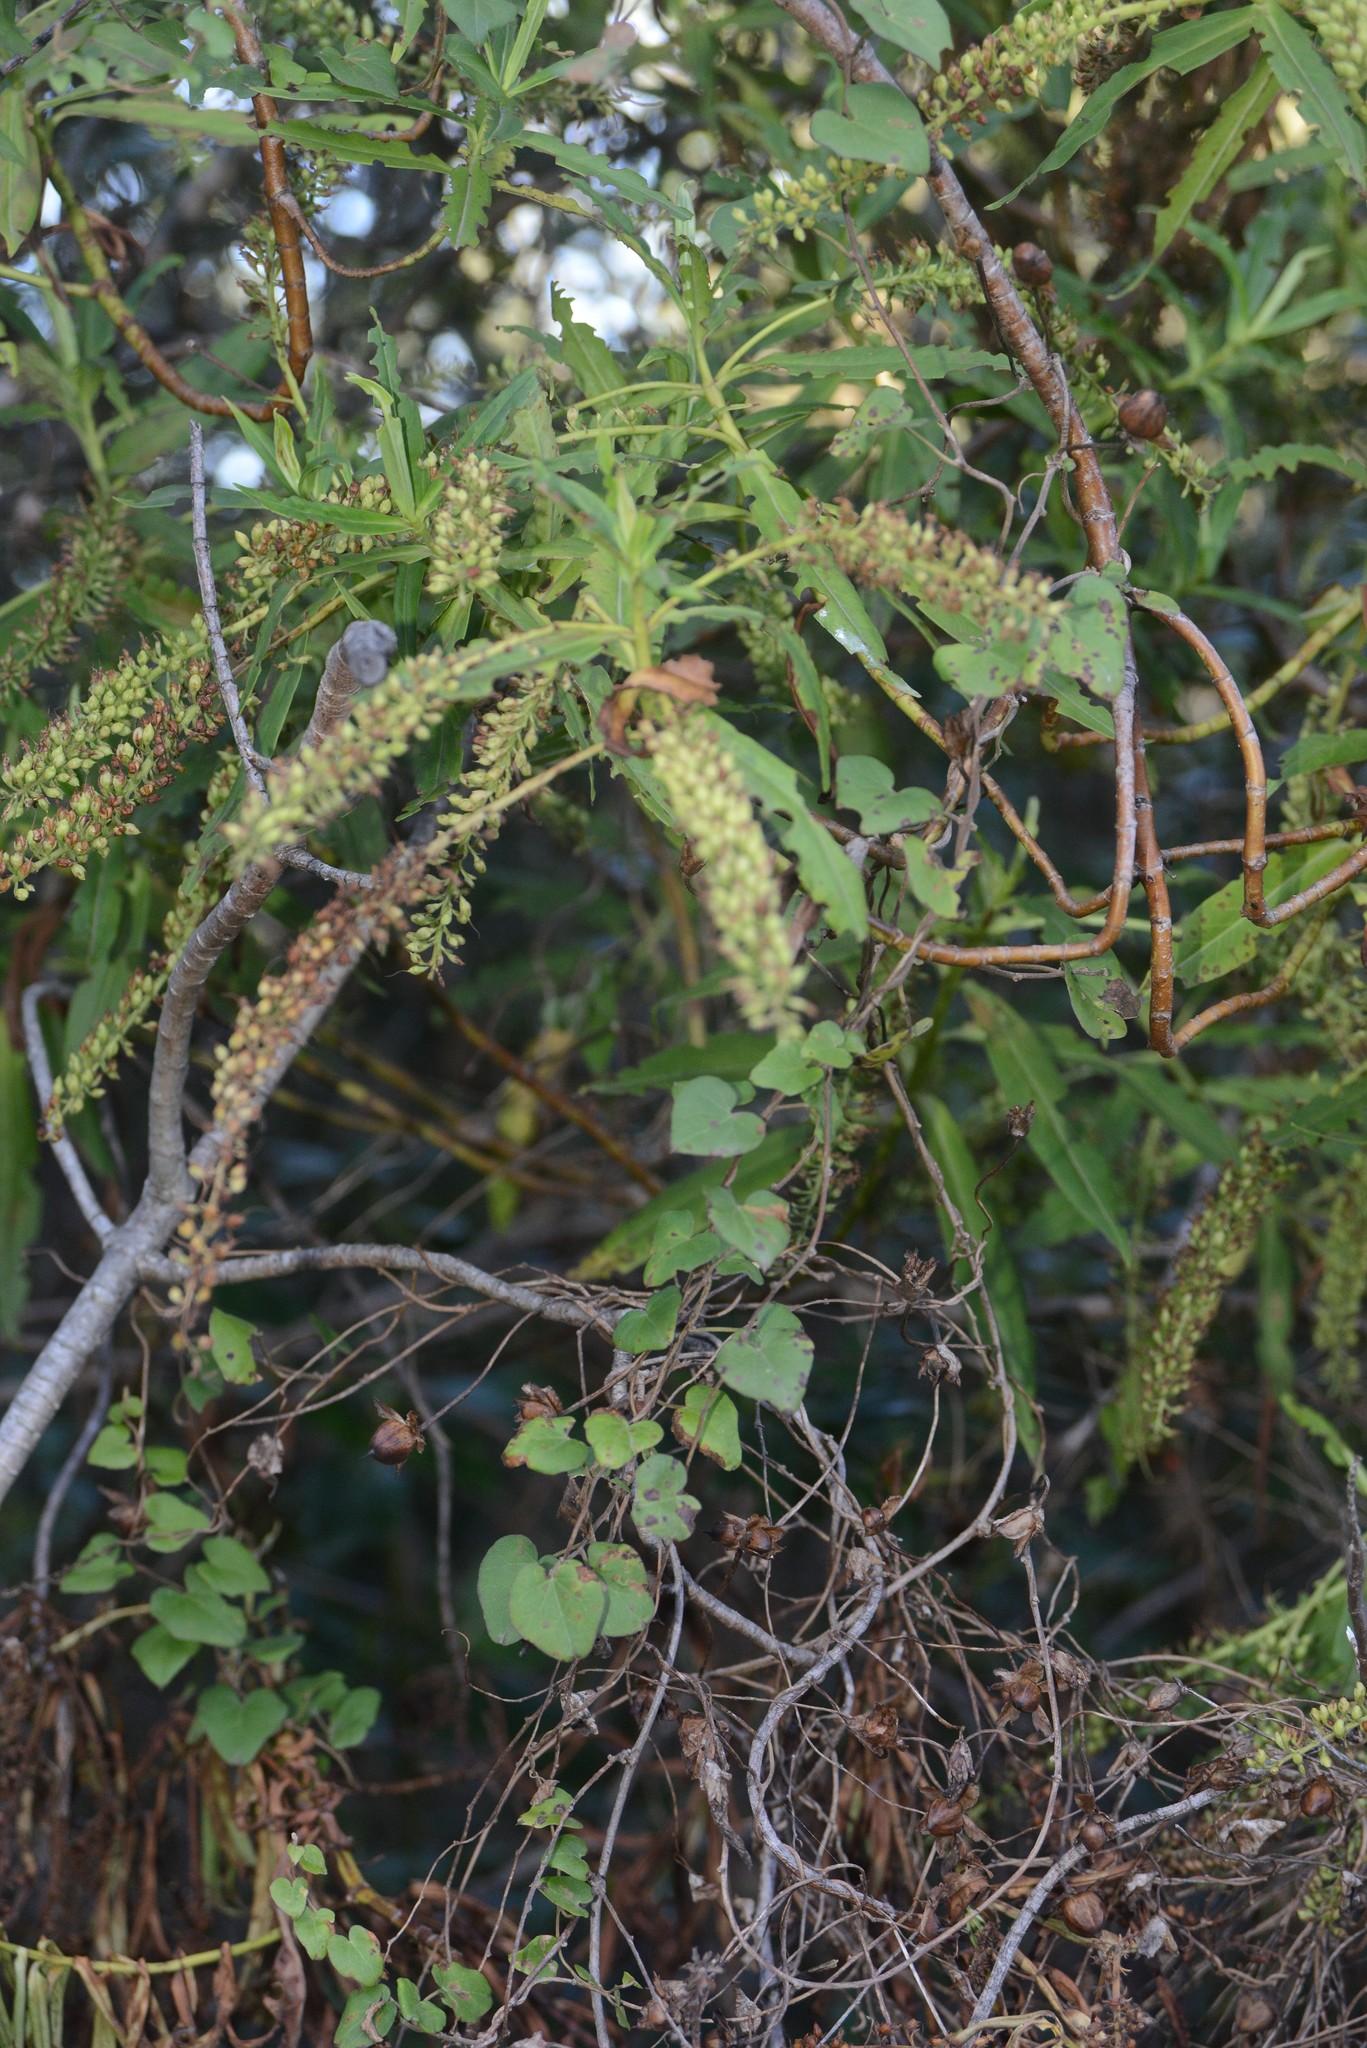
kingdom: Plantae
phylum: Tracheophyta
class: Magnoliopsida
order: Caryophyllales
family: Polygonaceae
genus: Muehlenbeckia
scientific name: Muehlenbeckia australis
